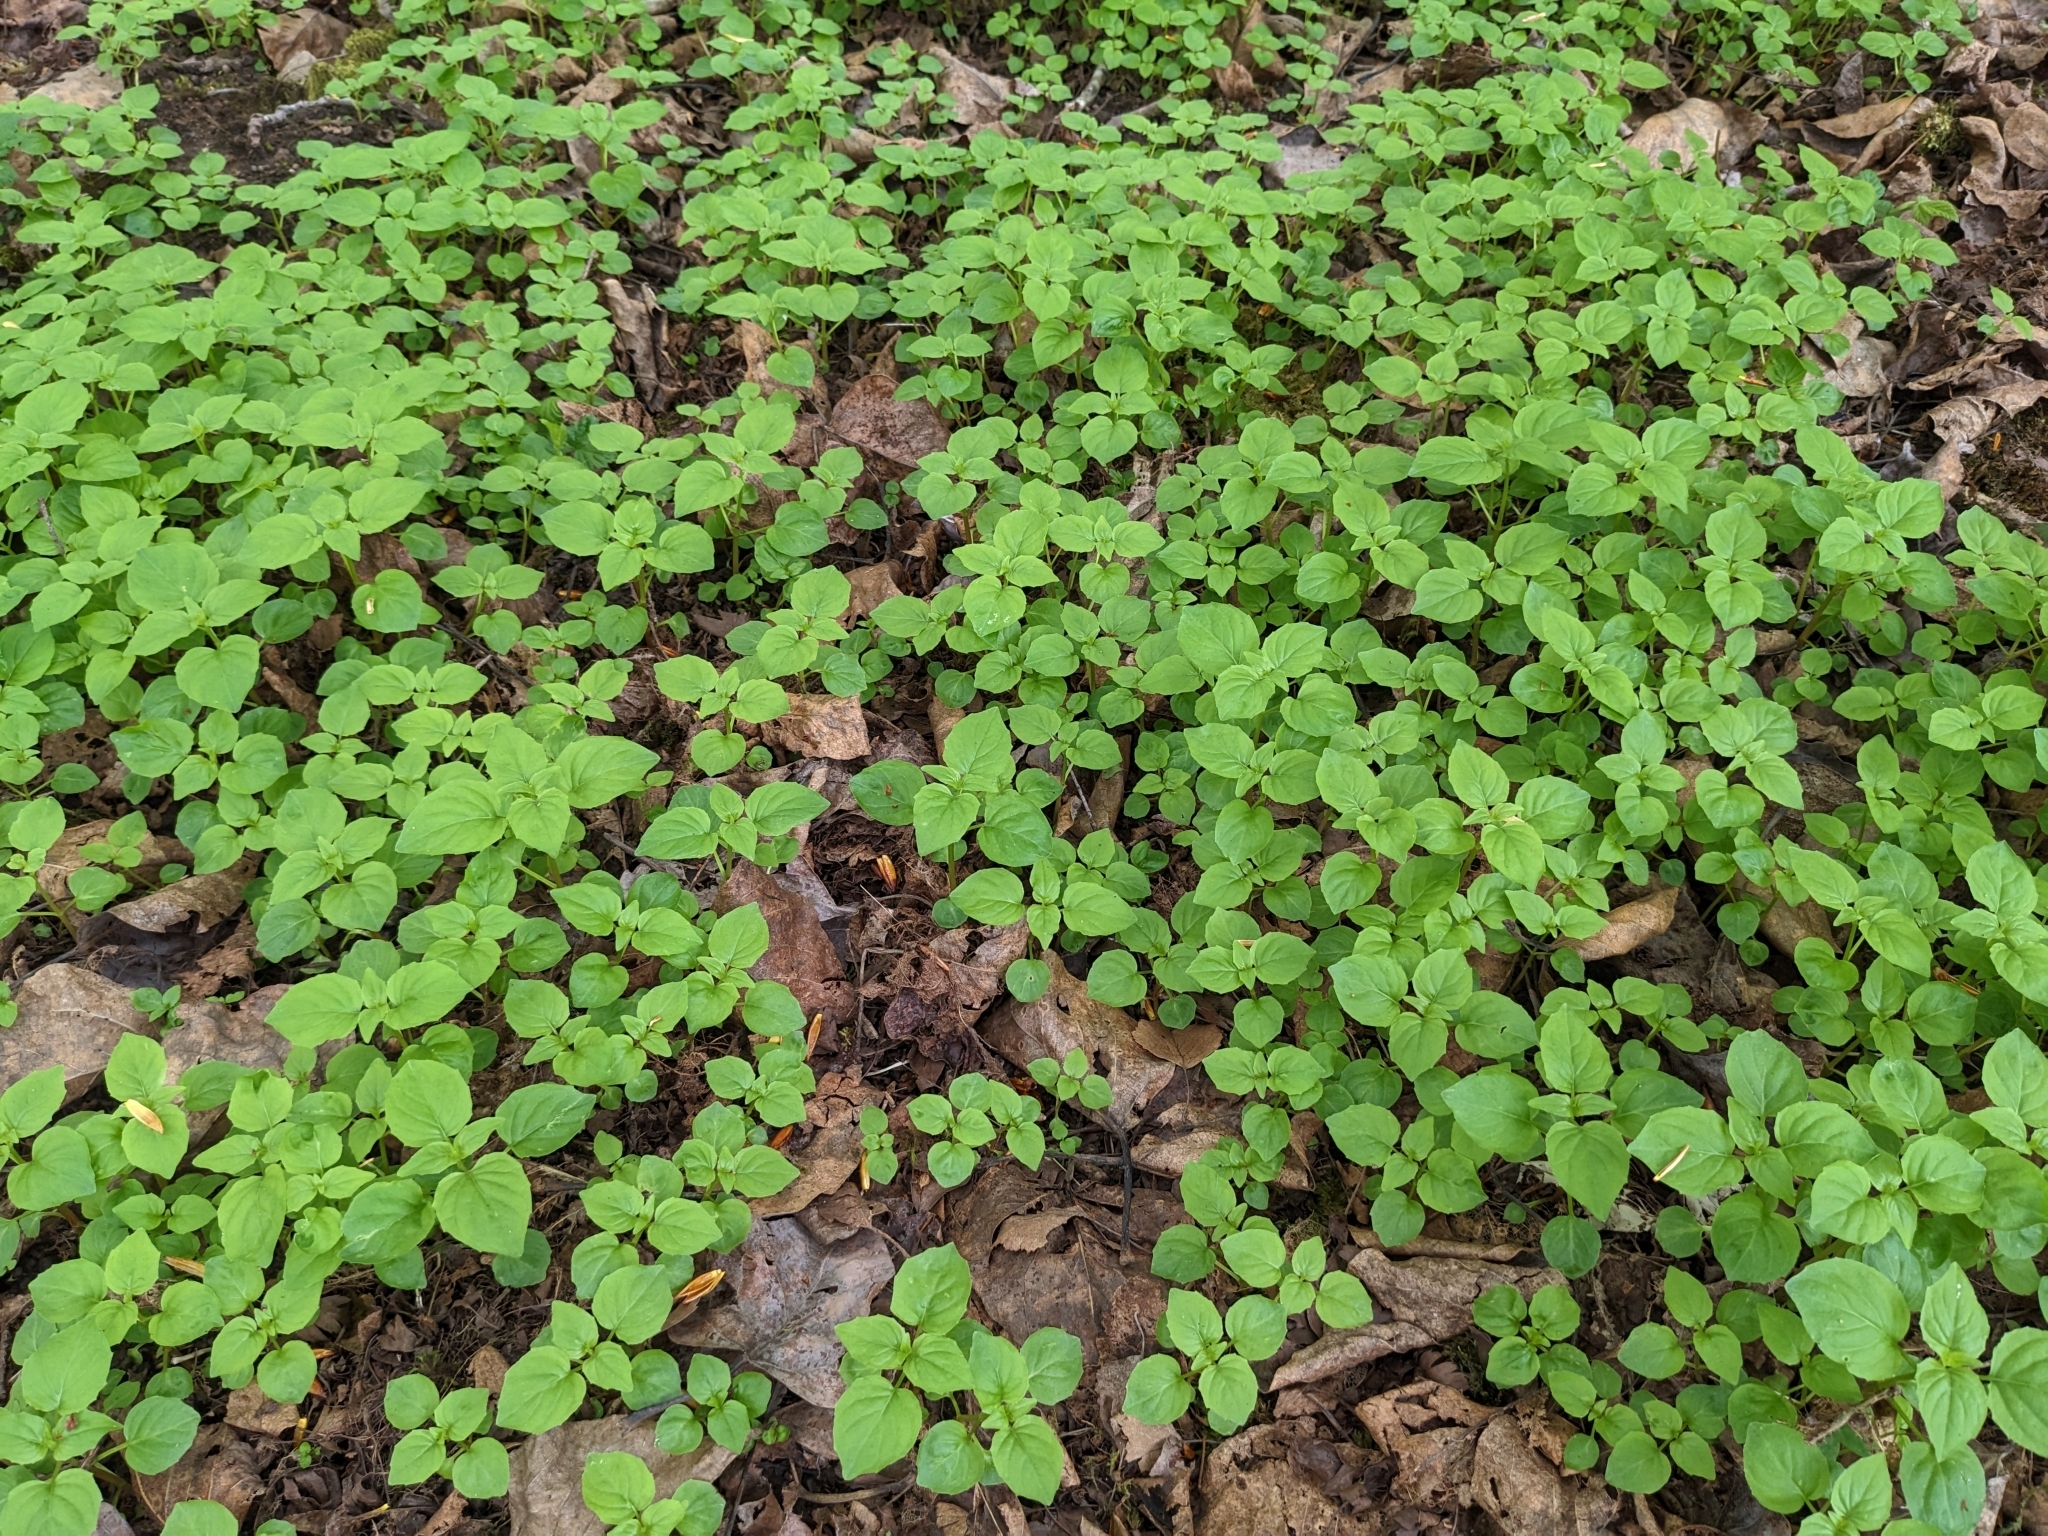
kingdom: Plantae
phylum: Tracheophyta
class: Magnoliopsida
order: Myrtales
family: Onagraceae
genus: Circaea
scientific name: Circaea alpina
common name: Alpine enchanter's-nightshade
